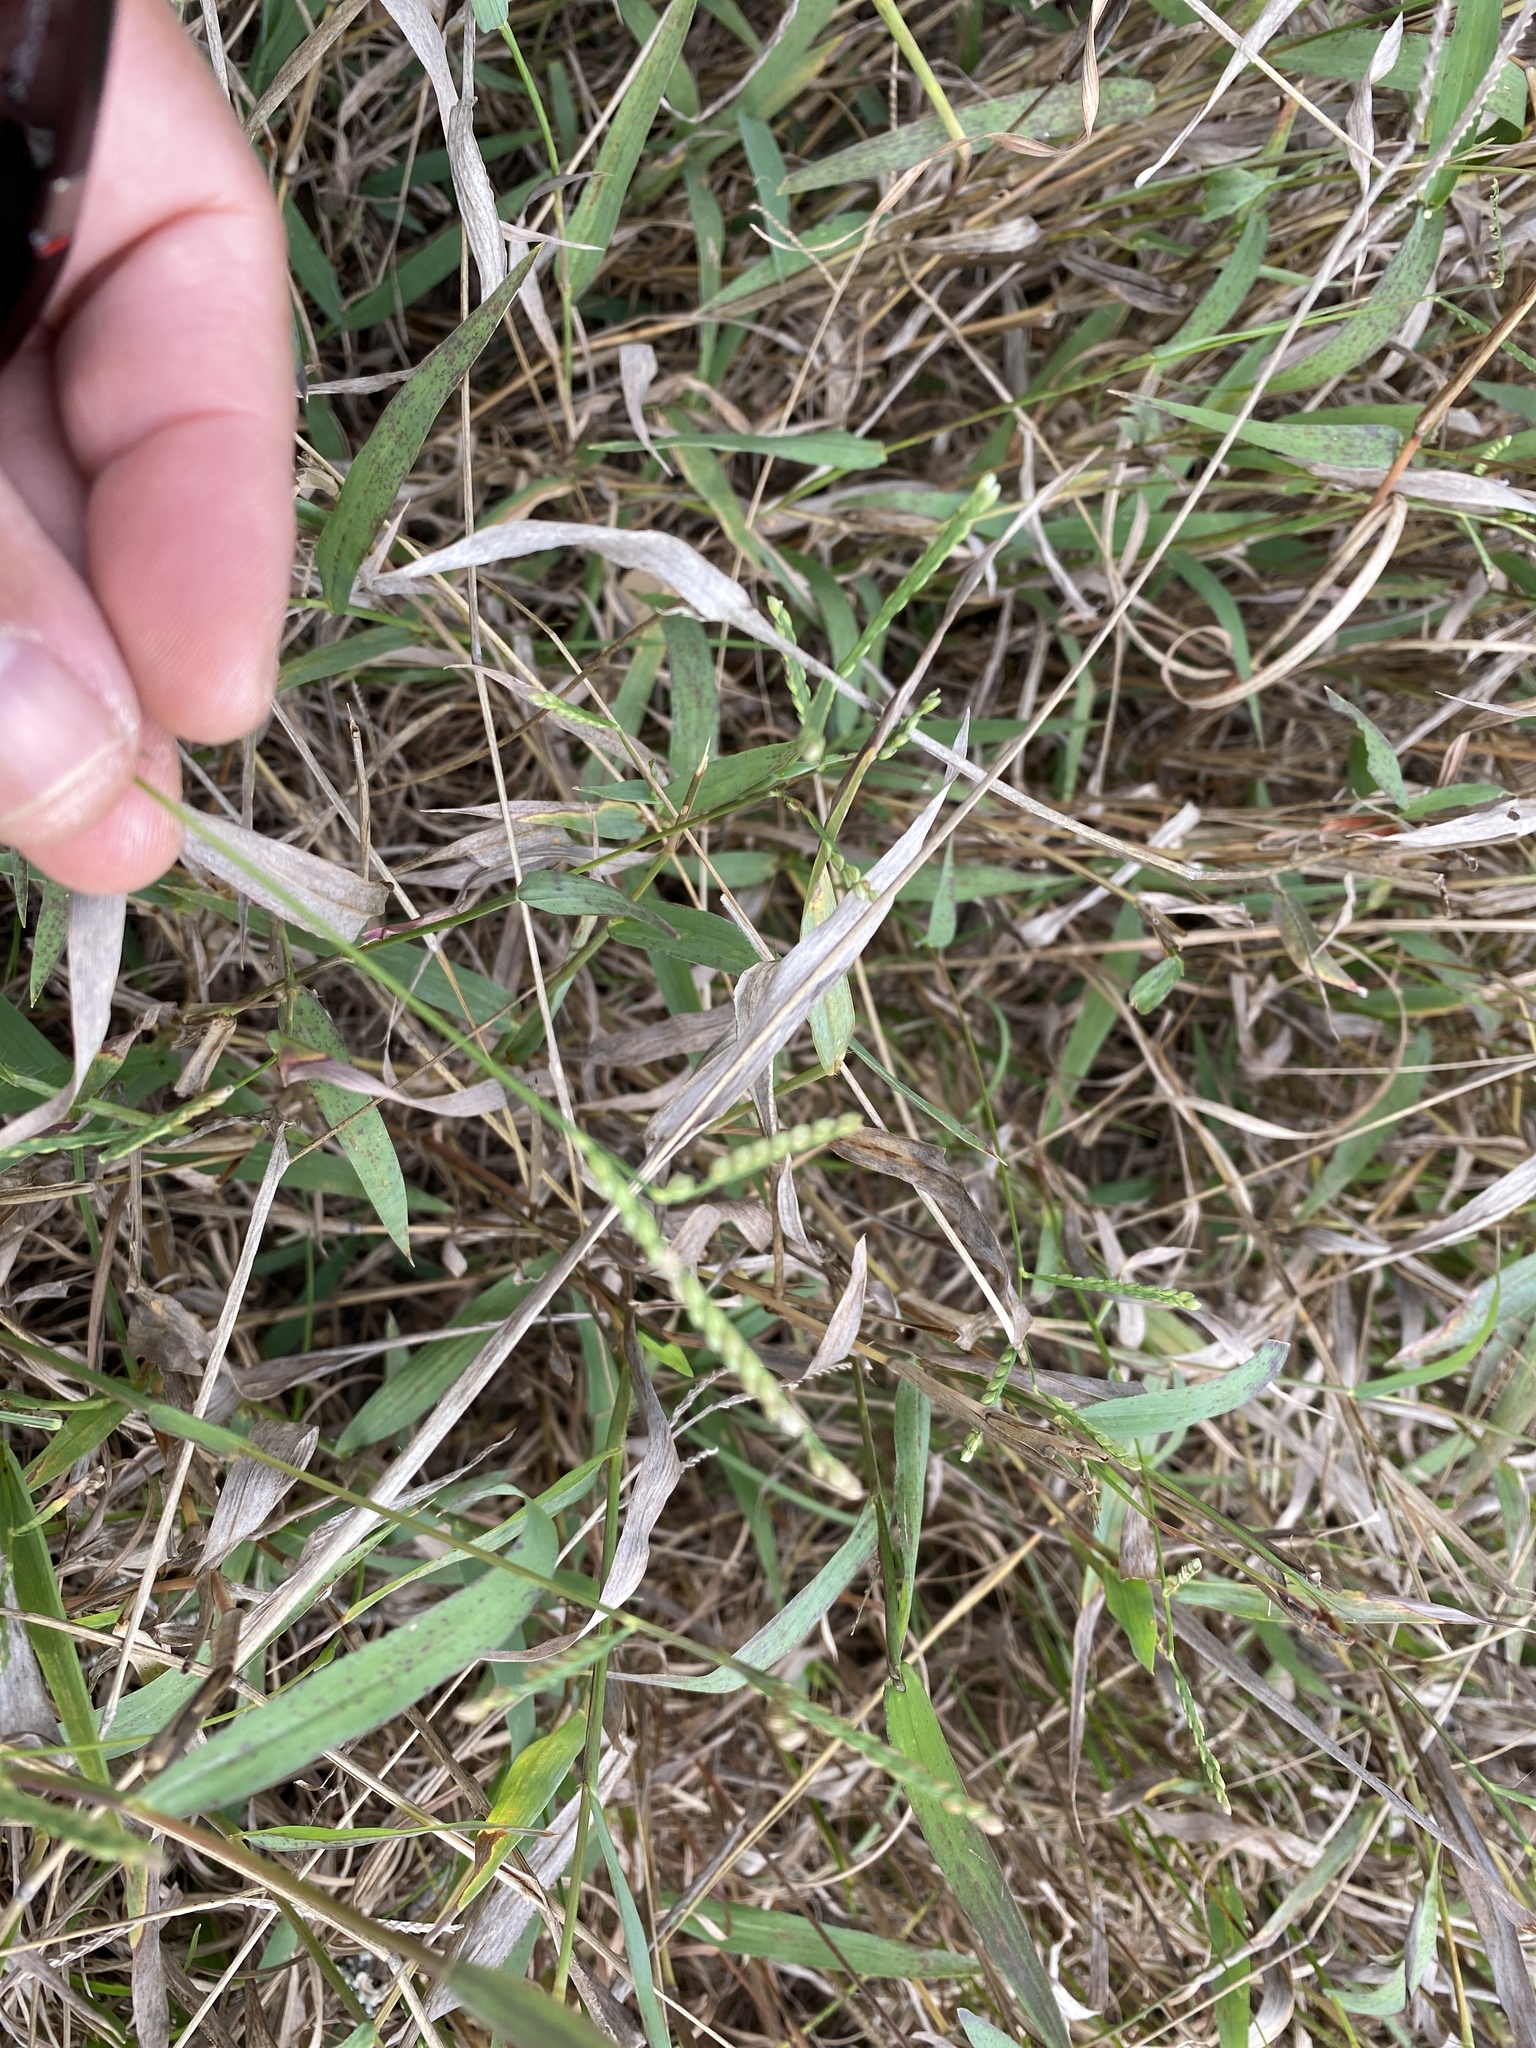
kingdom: Plantae
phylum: Tracheophyta
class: Liliopsida
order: Poales
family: Poaceae
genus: Paspalum
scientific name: Paspalum pubiflorum
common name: Hairy-seed paspalum
